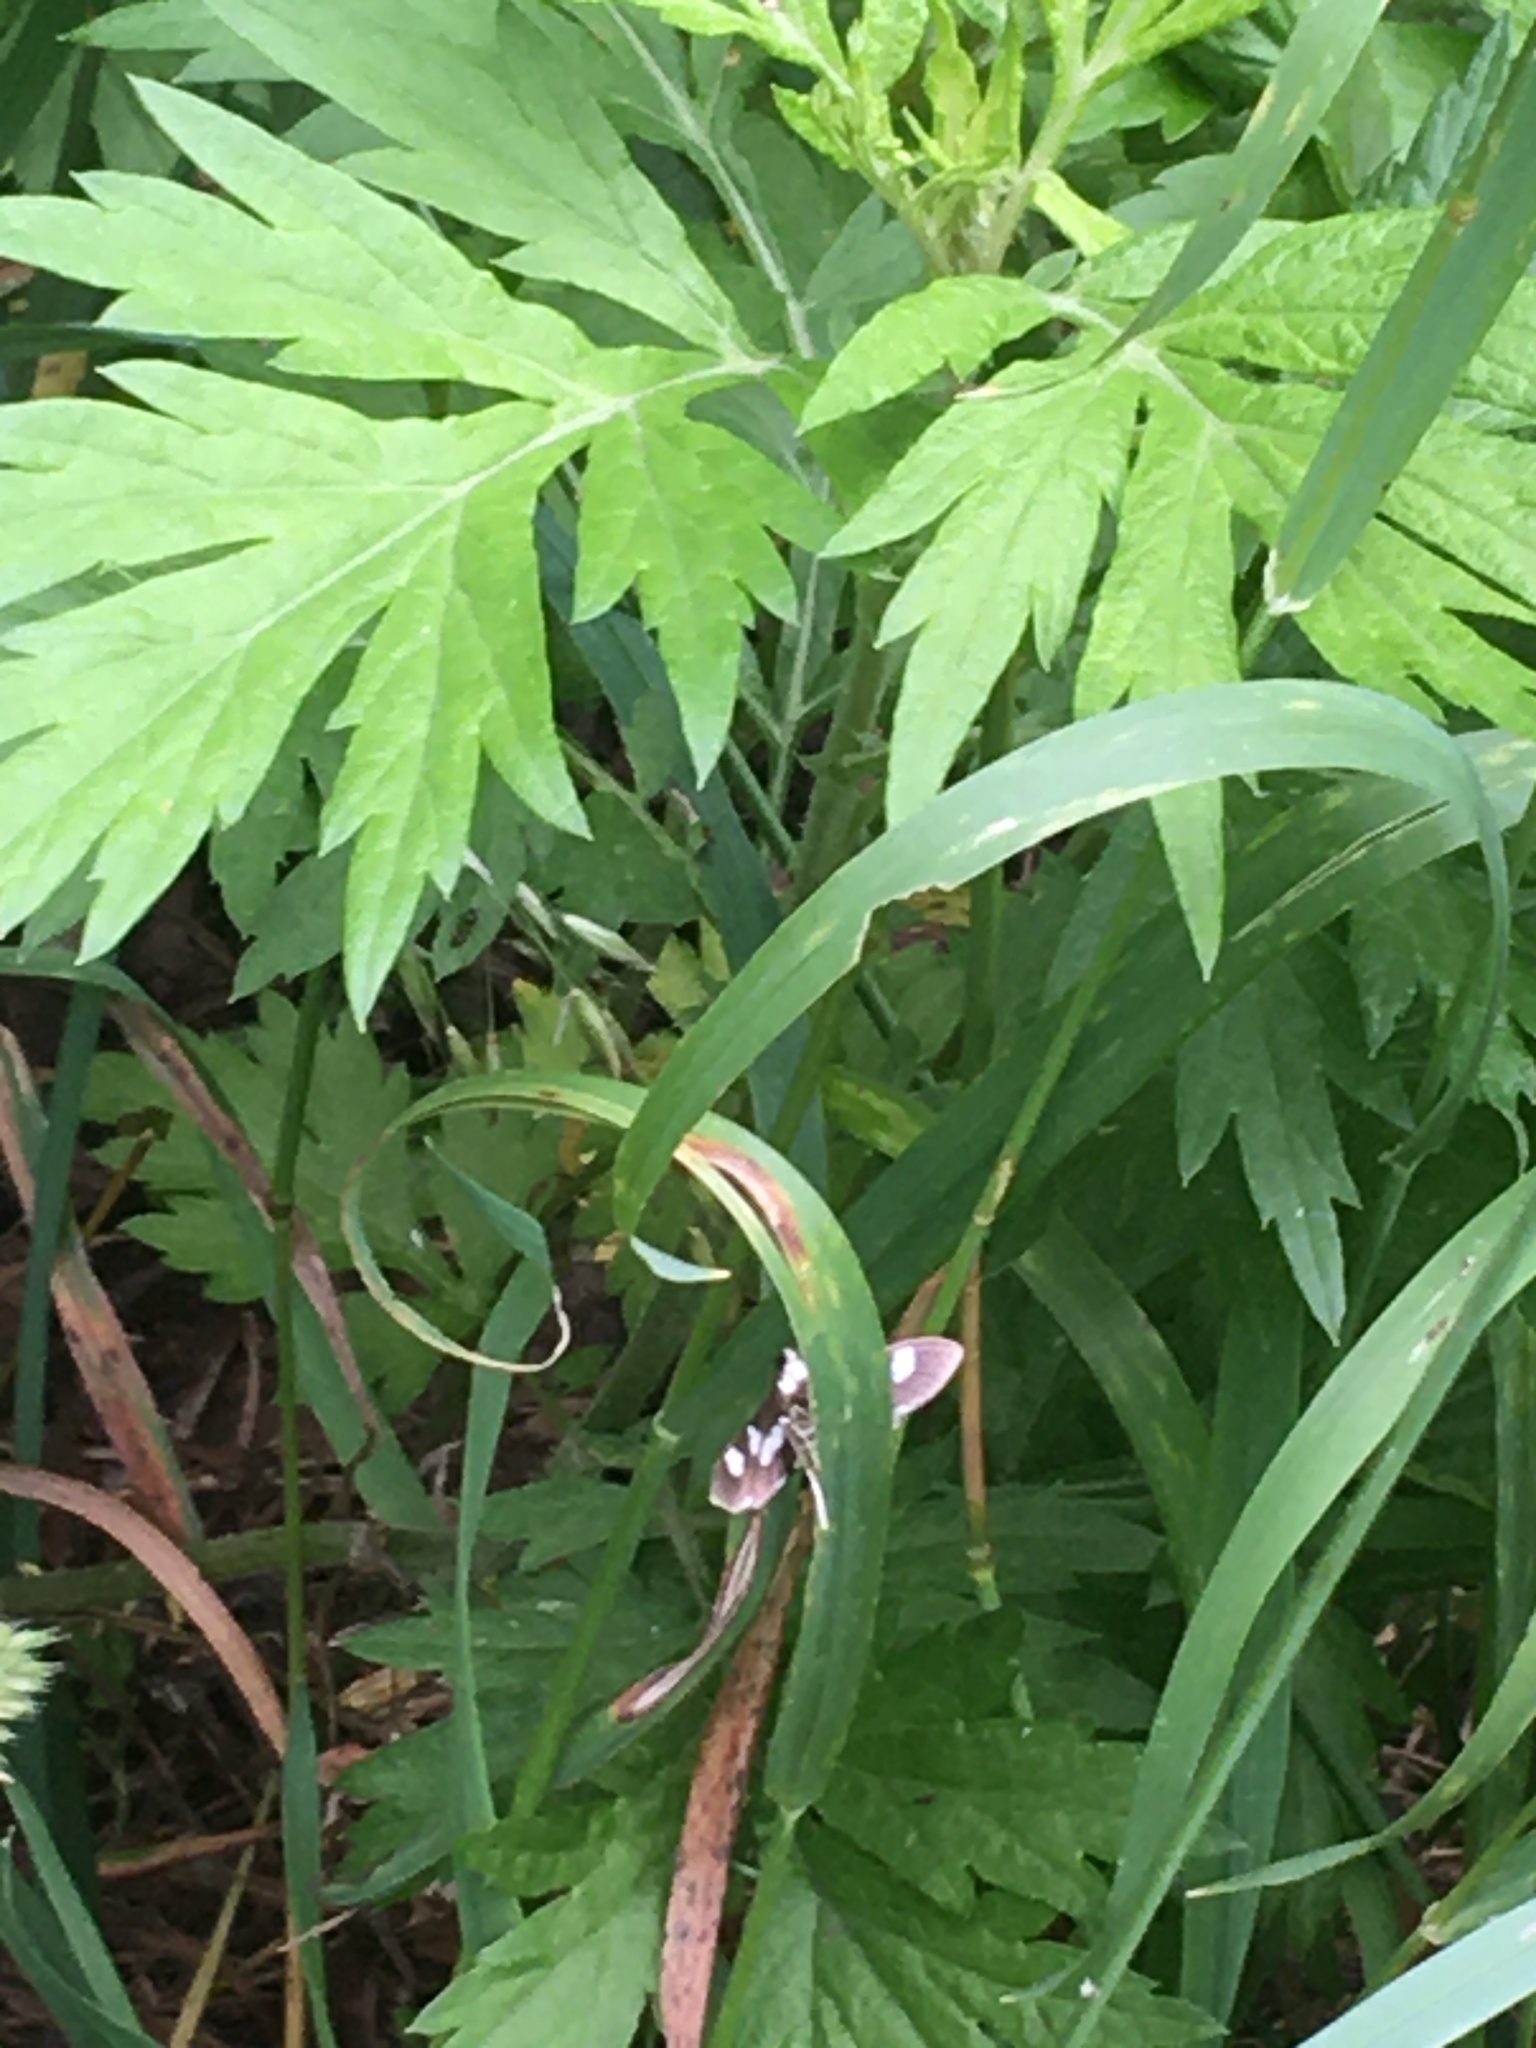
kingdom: Animalia
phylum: Arthropoda
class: Insecta
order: Lepidoptera
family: Crambidae
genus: Desmia
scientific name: Desmia
